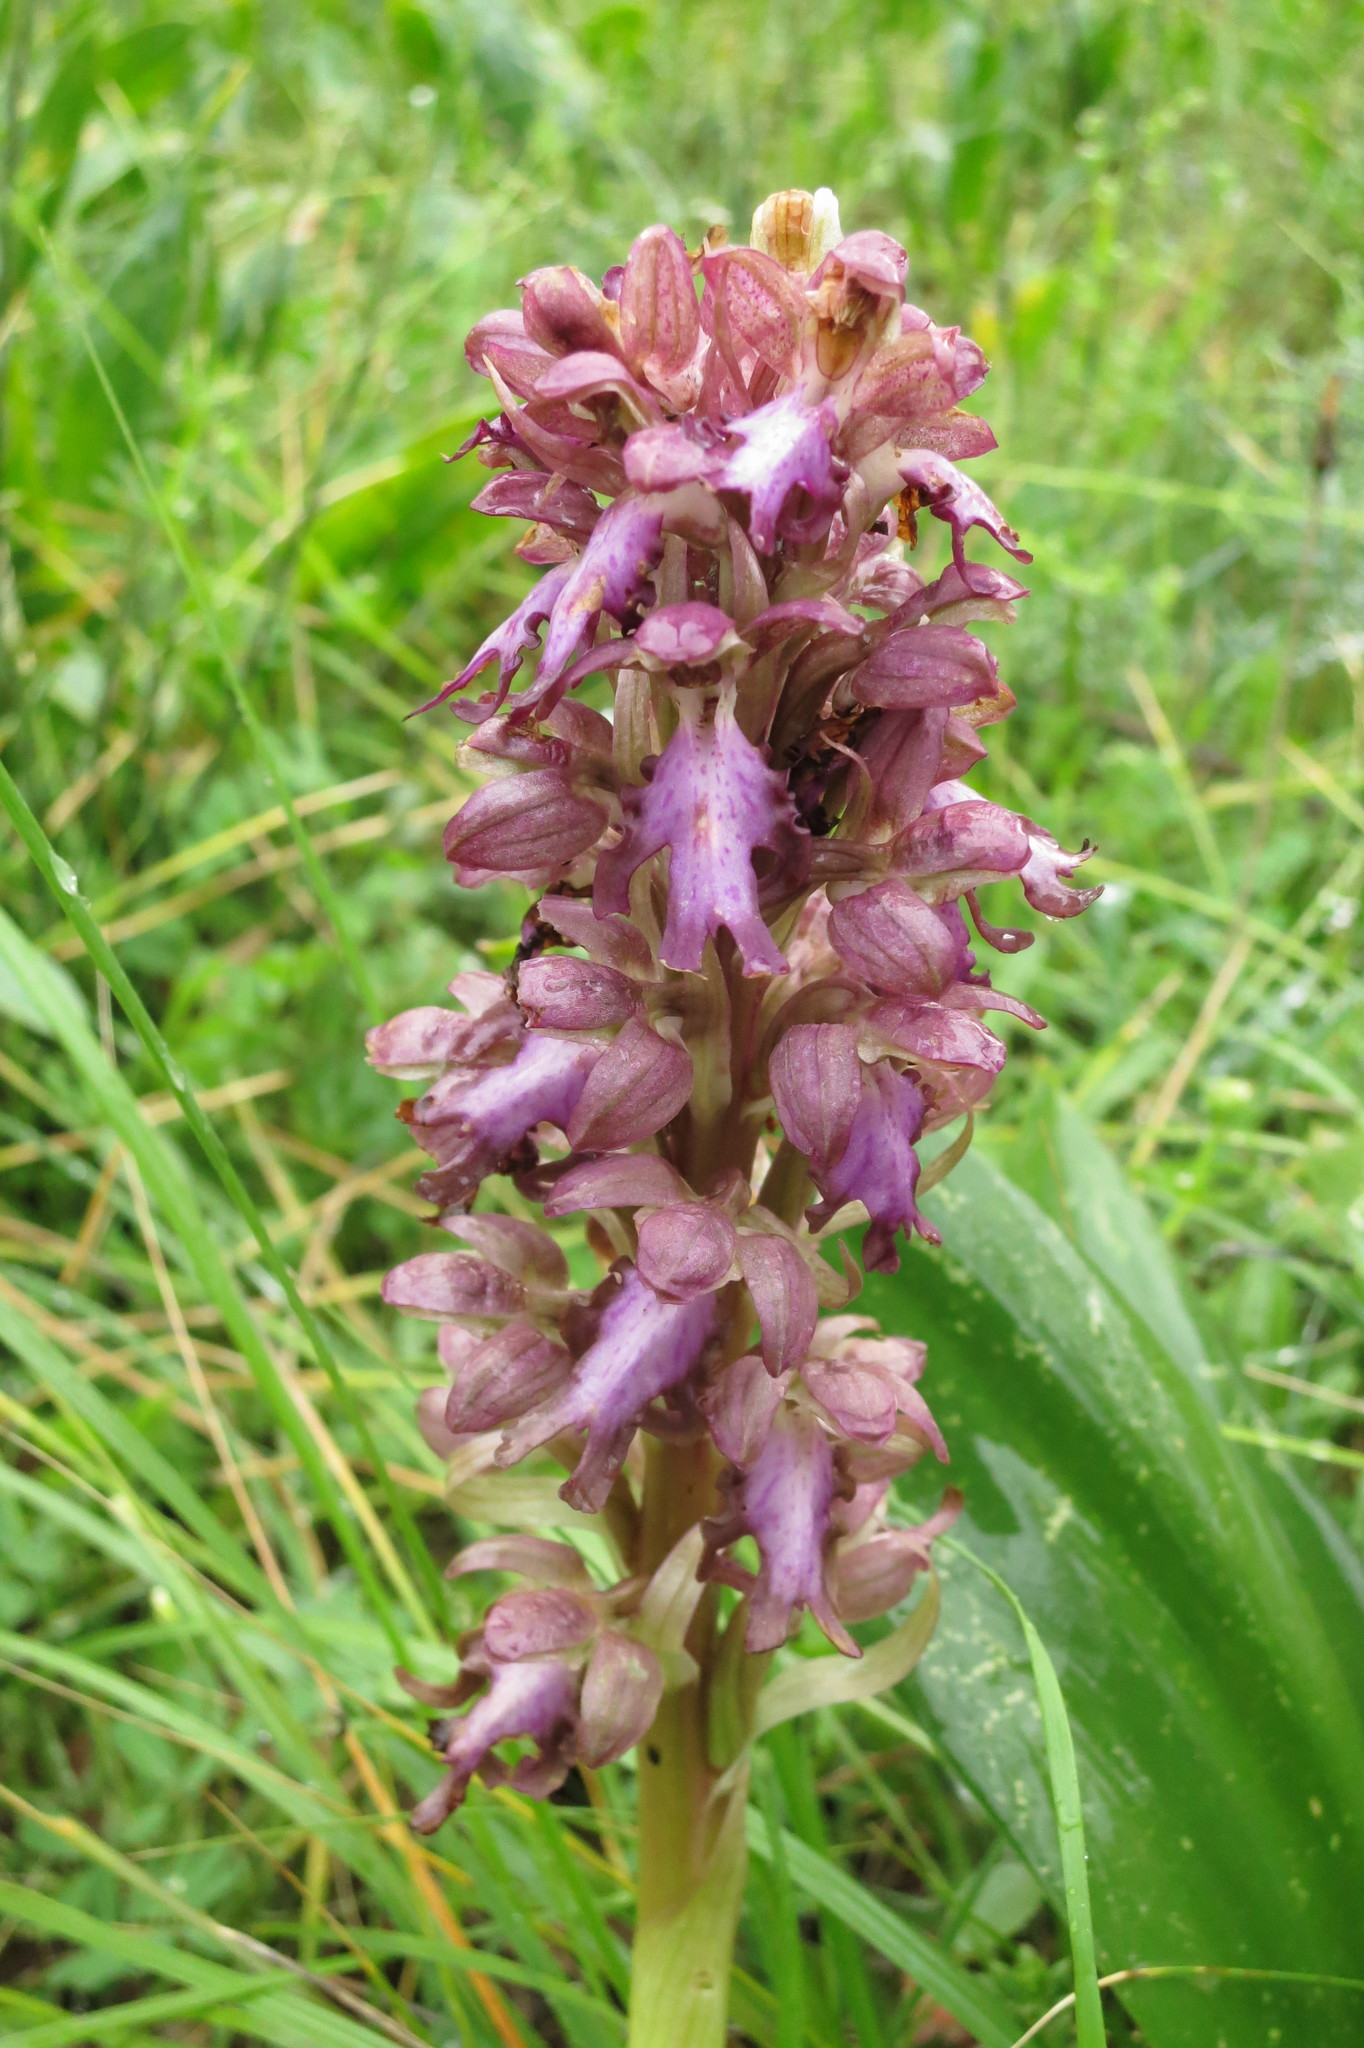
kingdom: Plantae
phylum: Tracheophyta
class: Liliopsida
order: Asparagales
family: Orchidaceae
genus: Himantoglossum
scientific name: Himantoglossum robertianum
